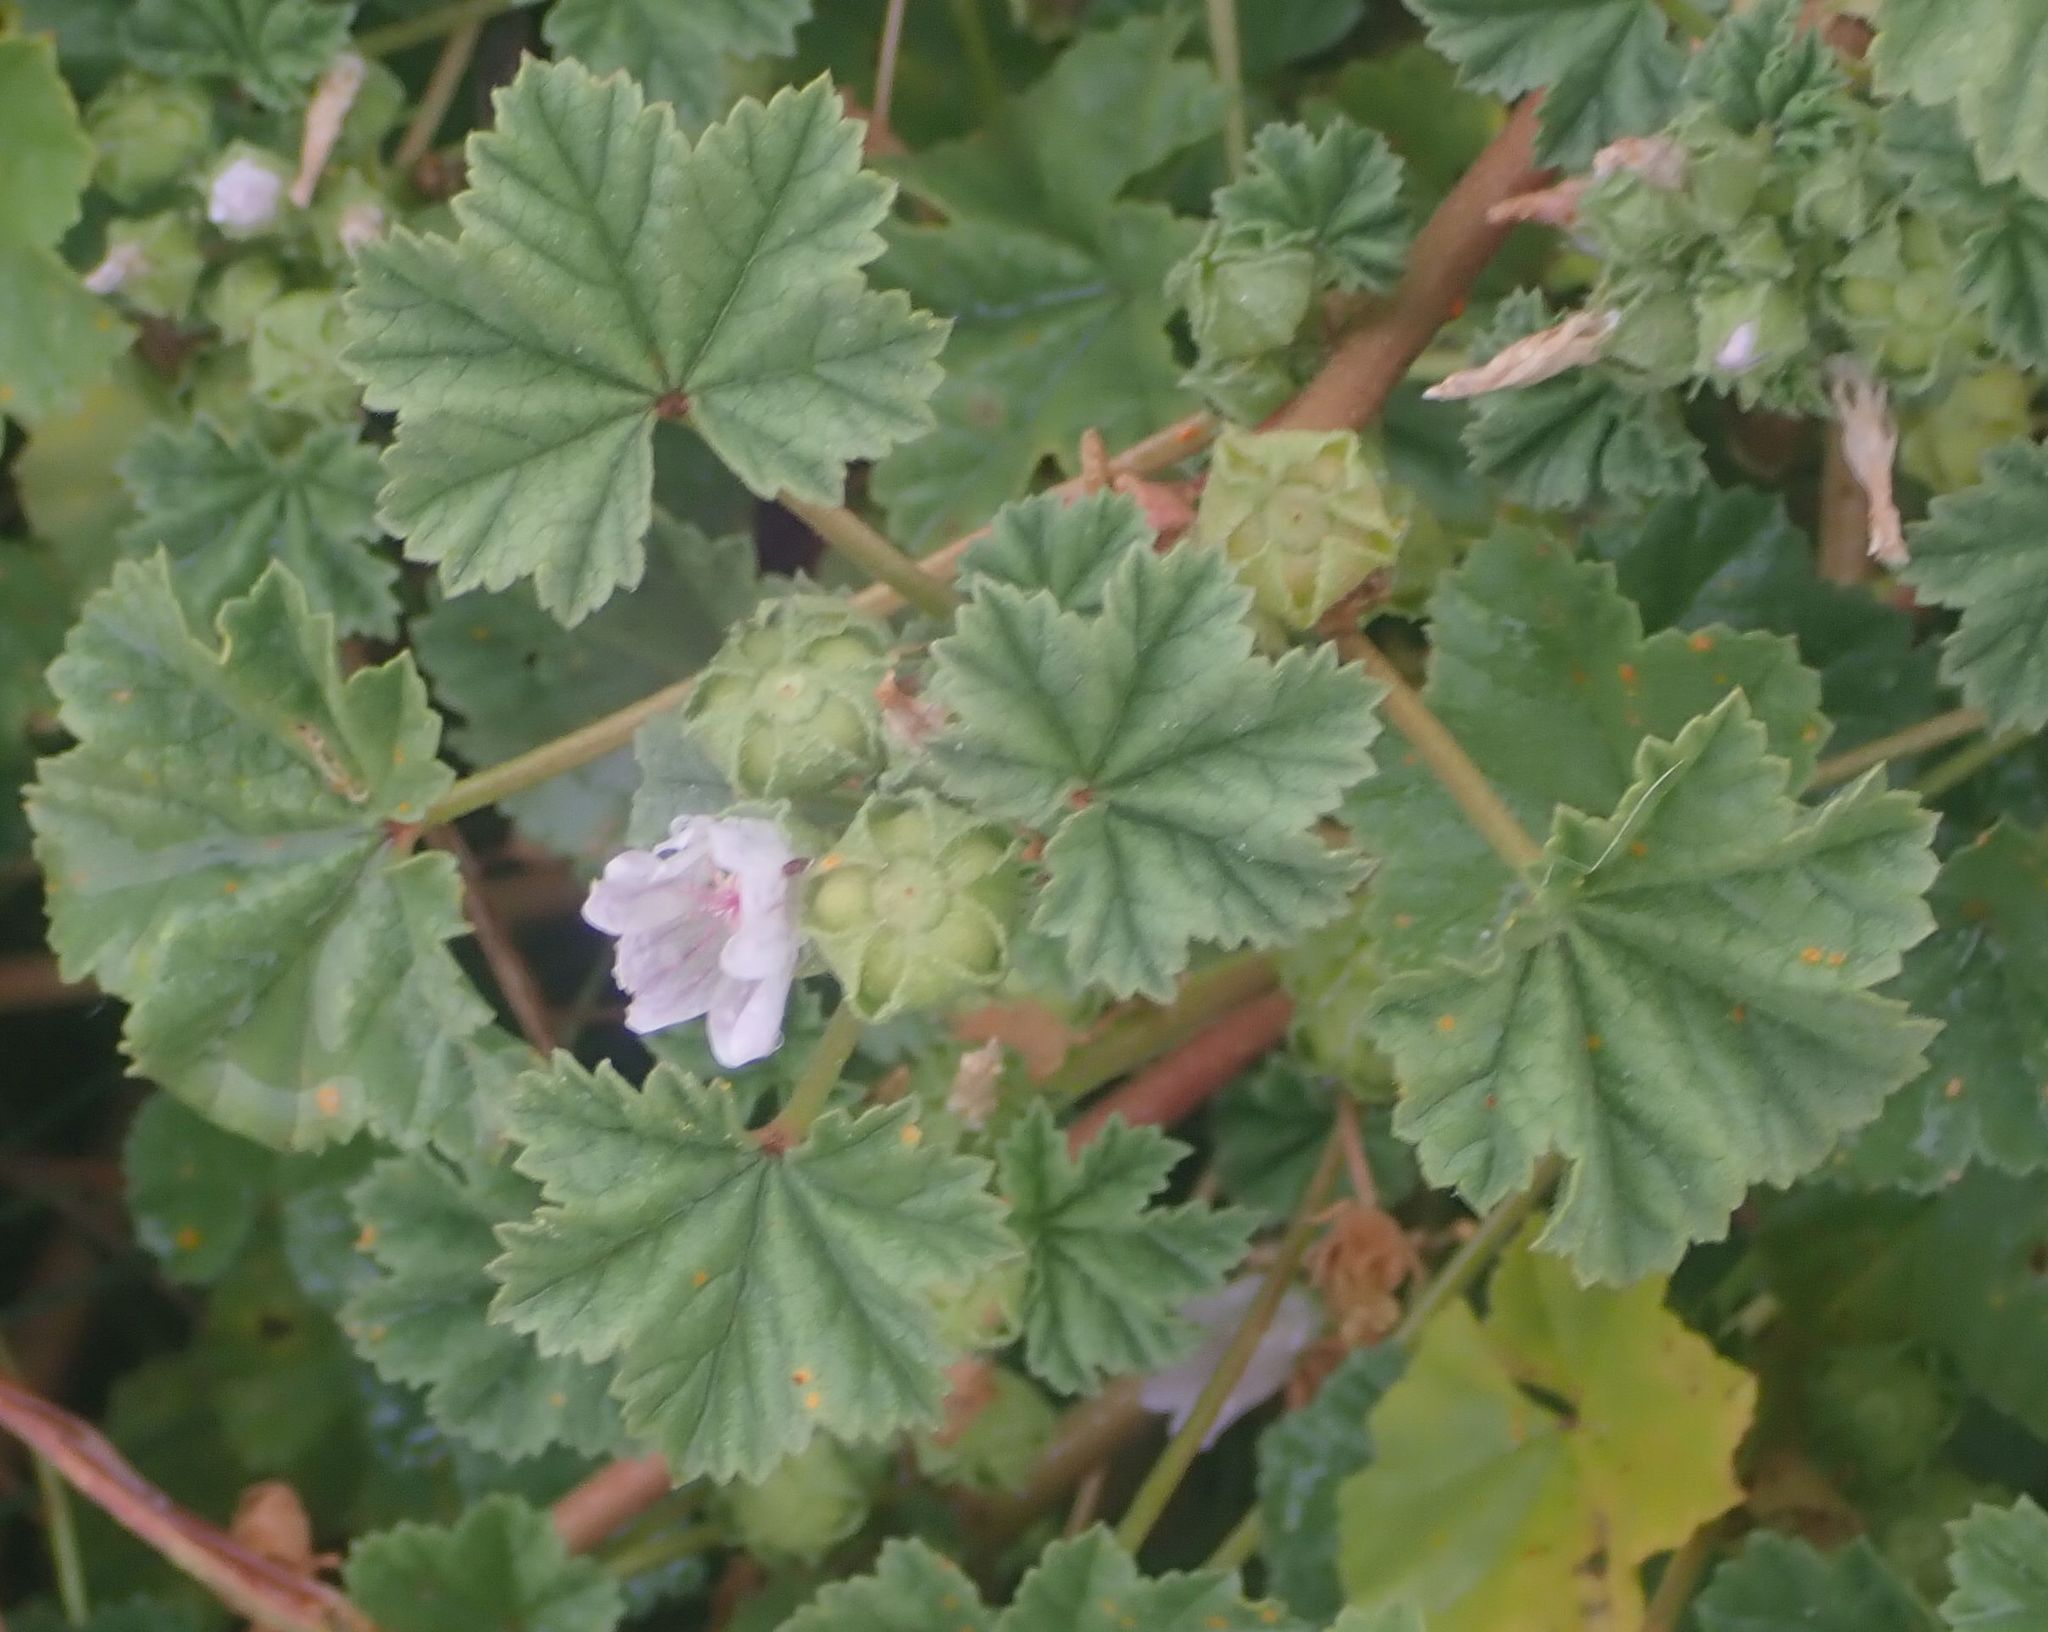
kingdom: Plantae
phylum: Tracheophyta
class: Magnoliopsida
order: Malvales
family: Malvaceae
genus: Malva
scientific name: Malva neglecta
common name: Common mallow
